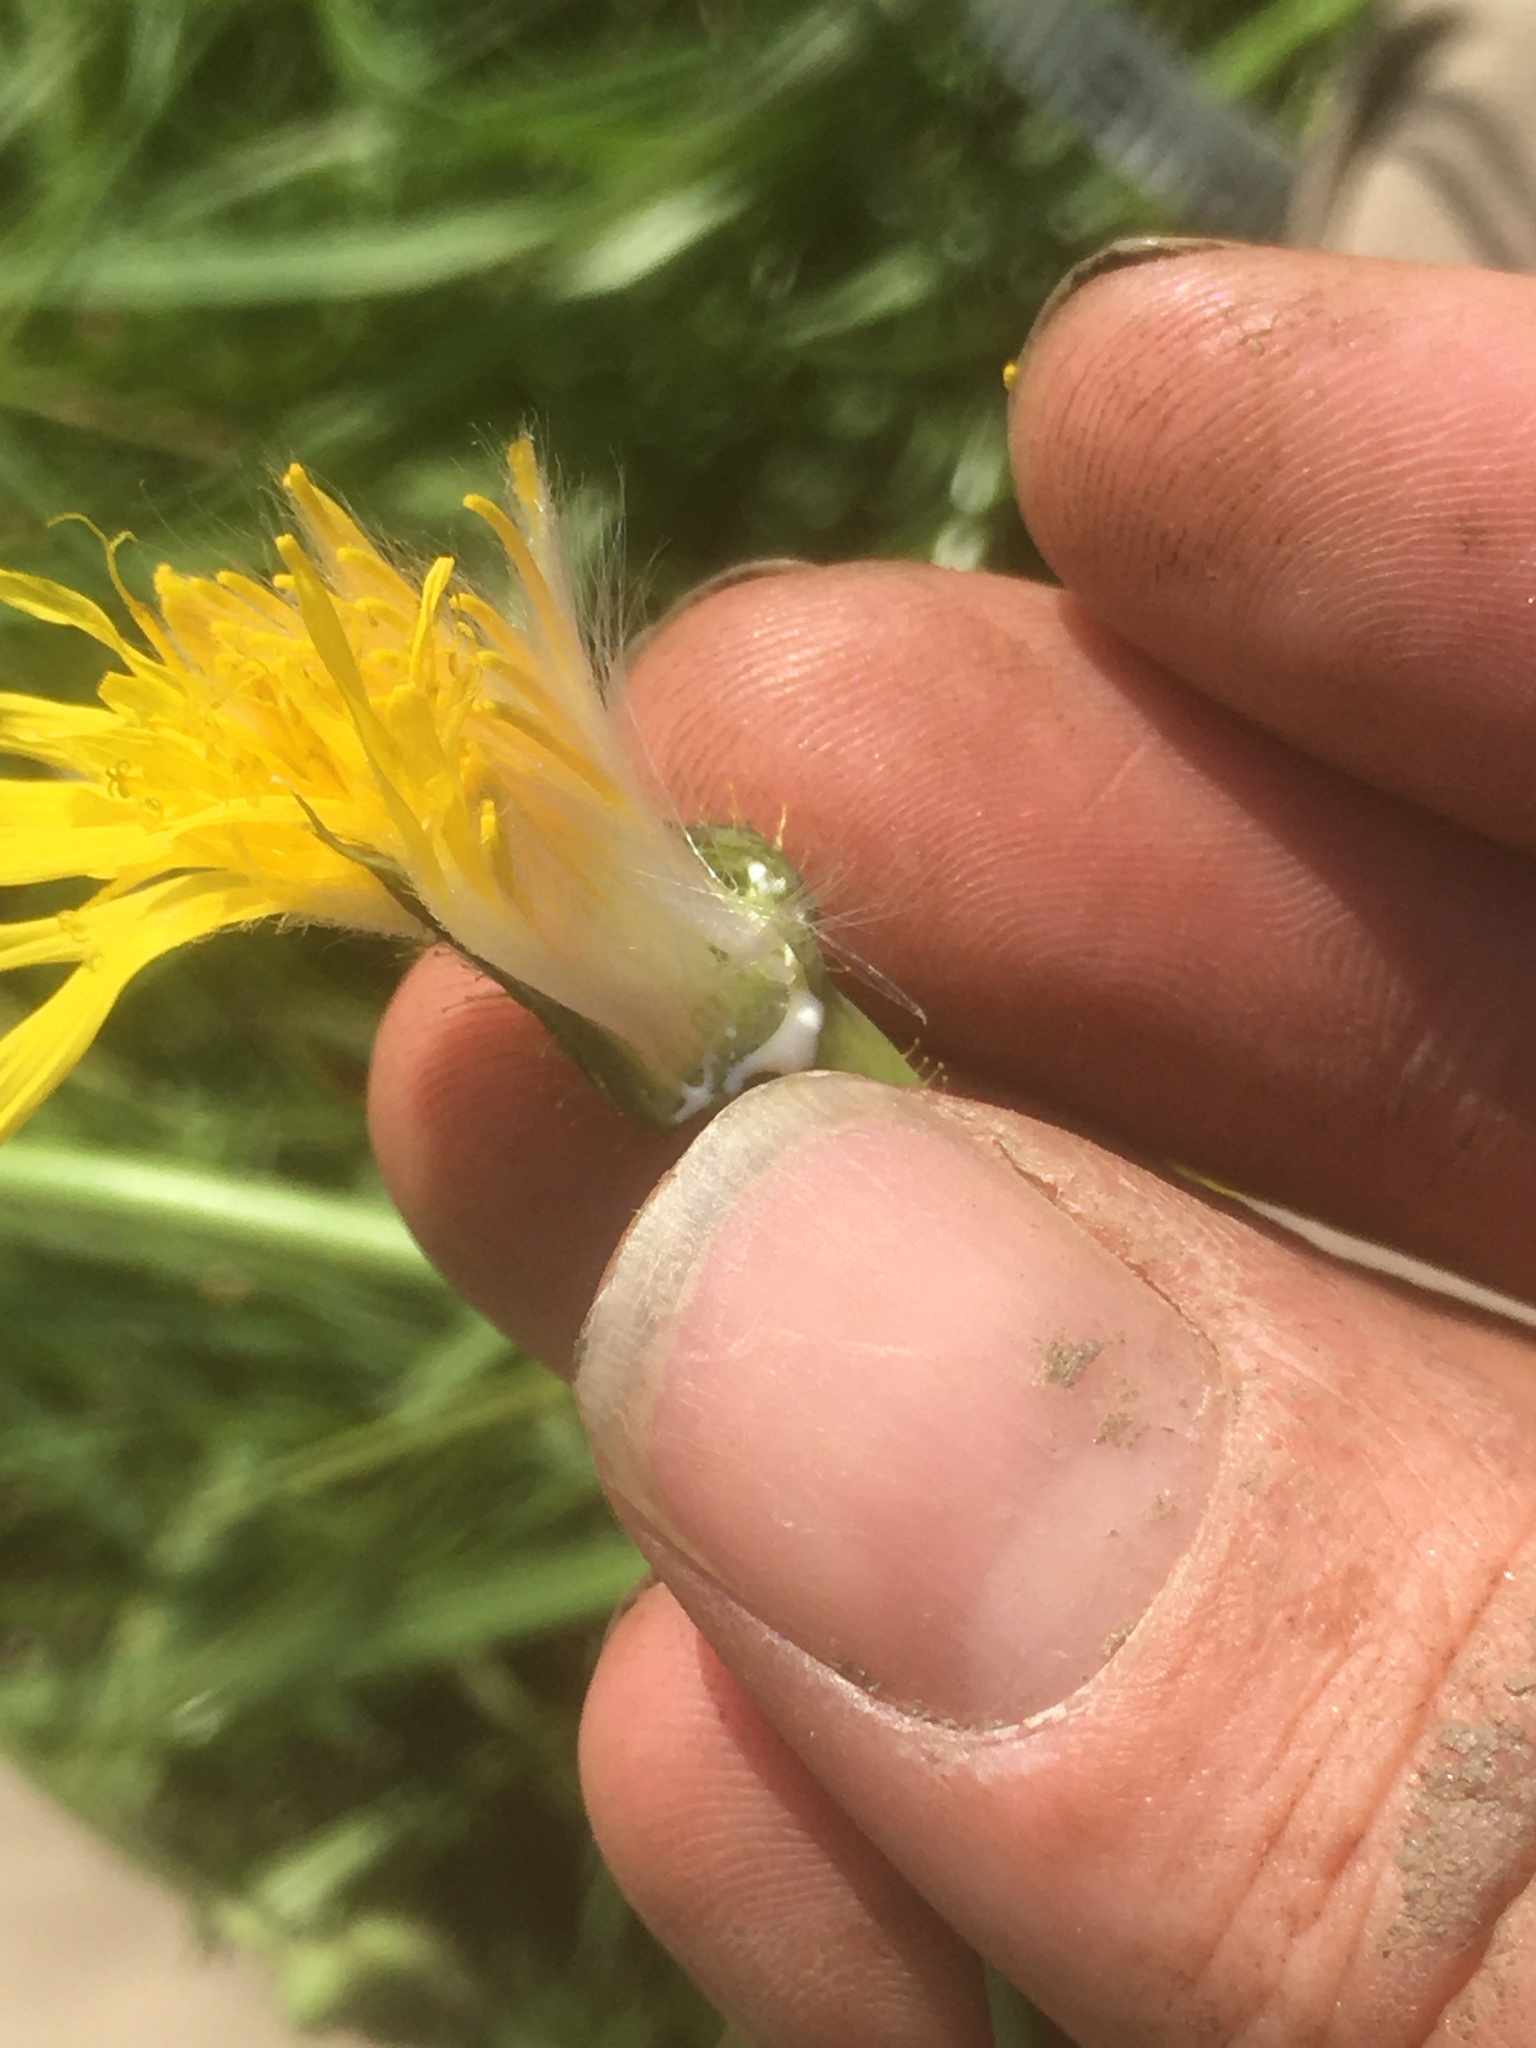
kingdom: Plantae
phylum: Tracheophyta
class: Magnoliopsida
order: Asterales
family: Asteraceae
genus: Sonchus
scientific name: Sonchus arvensis
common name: Perennial sow-thistle
